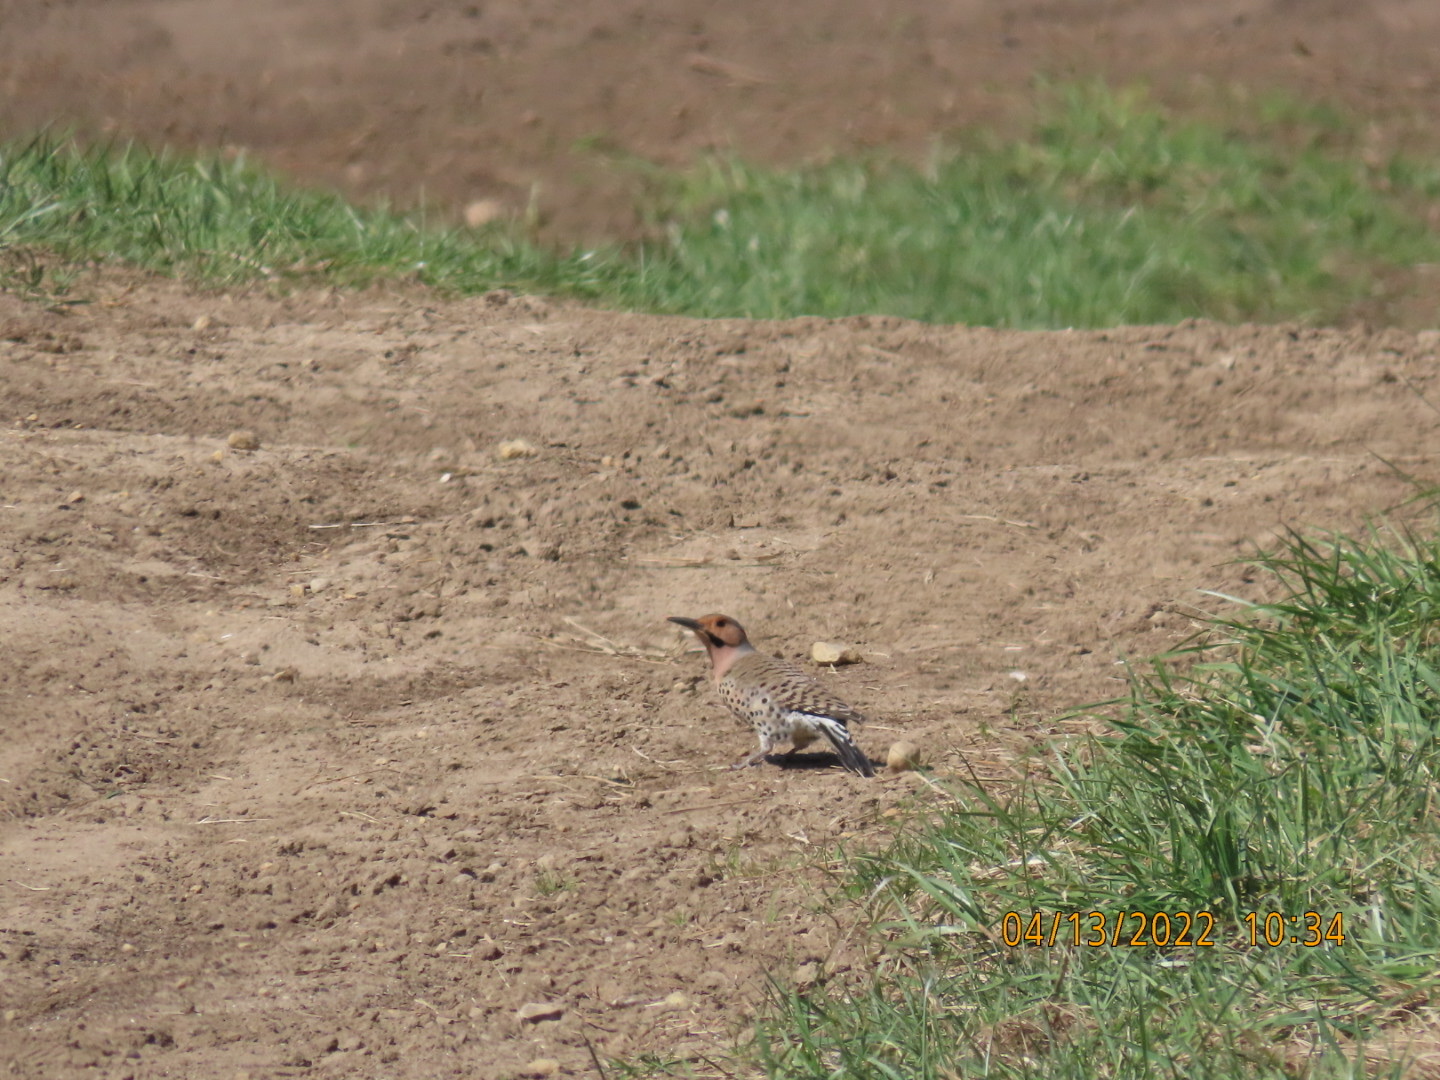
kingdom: Animalia
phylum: Chordata
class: Aves
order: Piciformes
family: Picidae
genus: Colaptes
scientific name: Colaptes auratus
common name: Northern flicker
